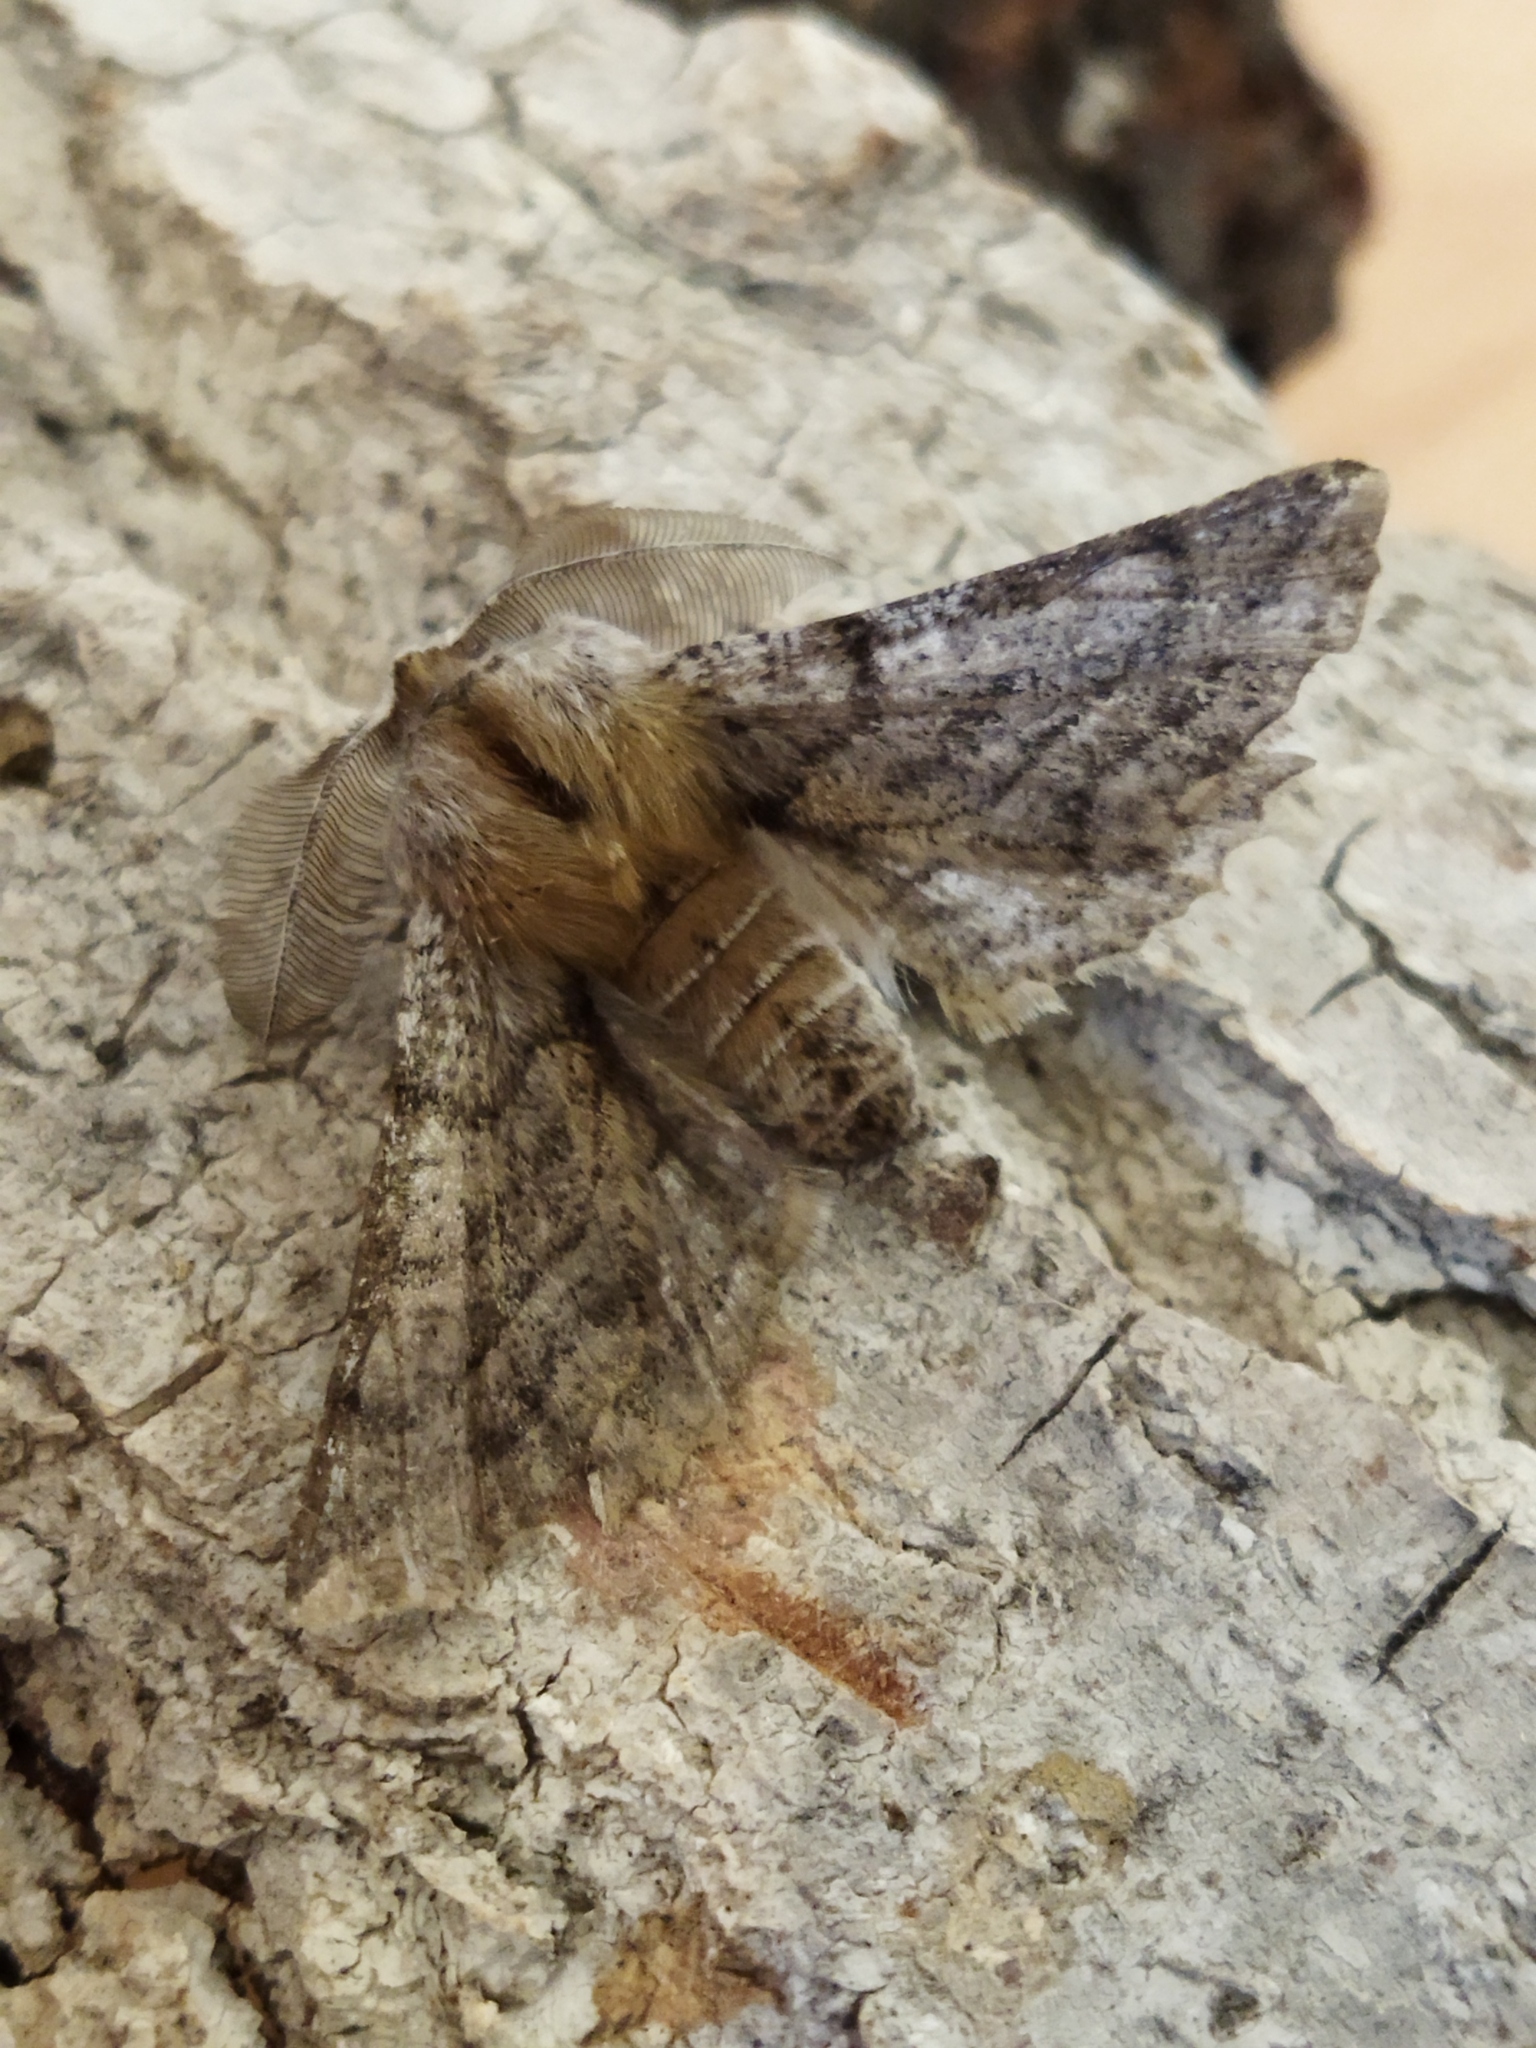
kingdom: Animalia
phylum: Arthropoda
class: Insecta
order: Lepidoptera
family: Geometridae
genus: Apochima
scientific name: Apochima flabellaria
